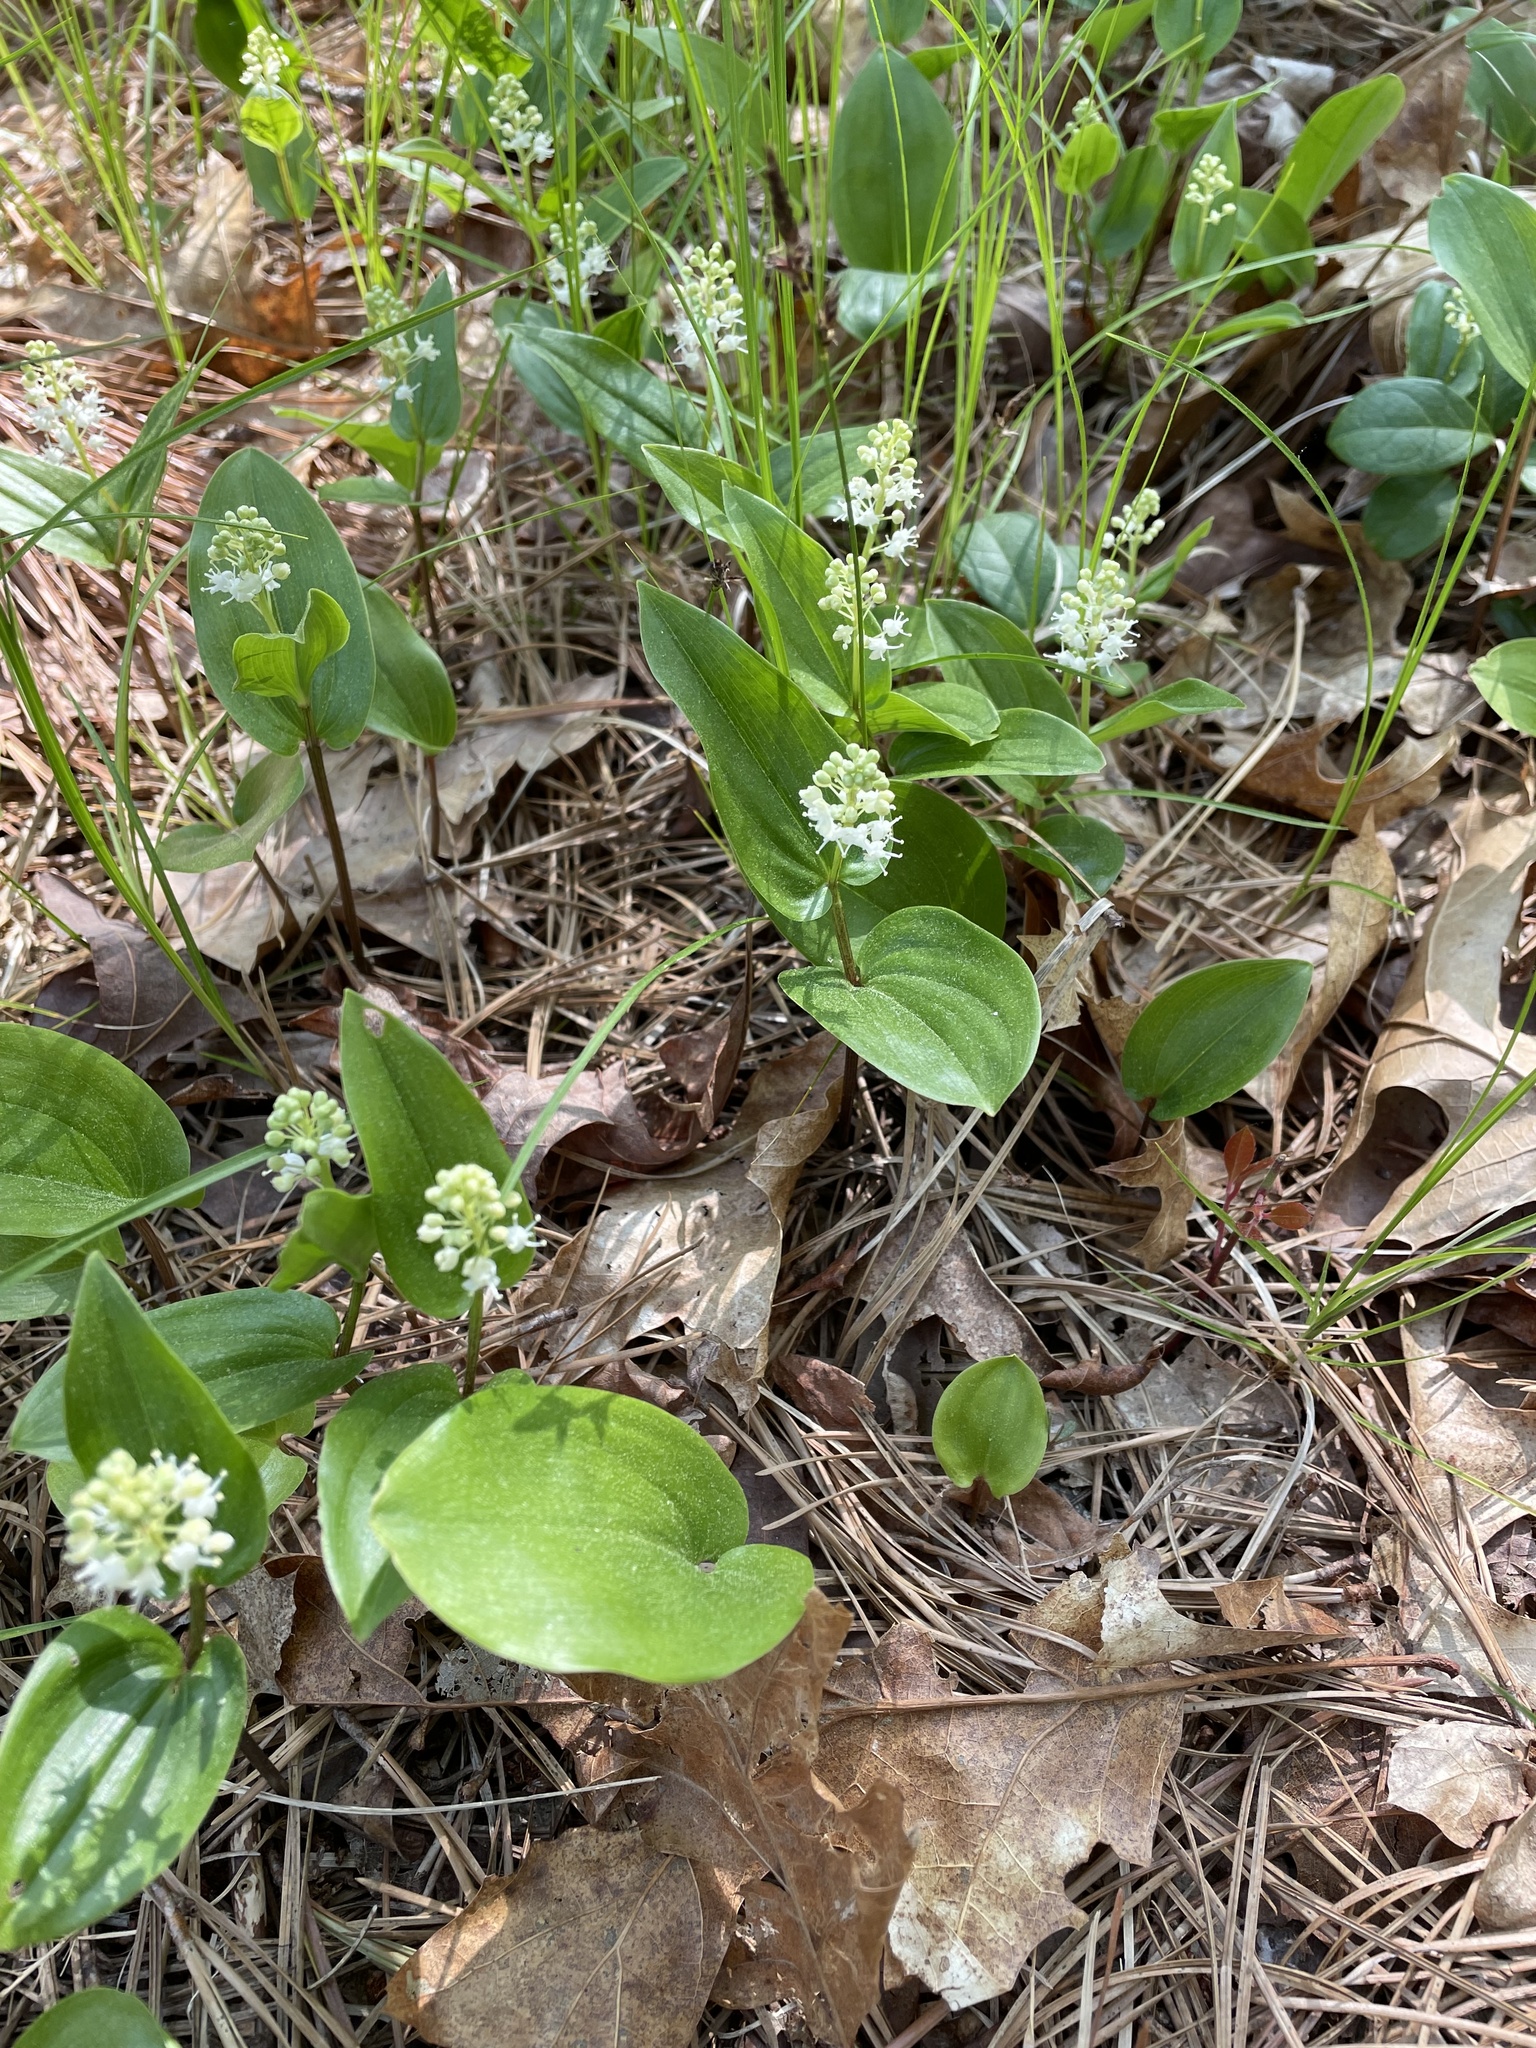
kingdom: Plantae
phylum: Tracheophyta
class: Liliopsida
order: Asparagales
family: Asparagaceae
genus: Maianthemum
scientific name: Maianthemum canadense
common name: False lily-of-the-valley
